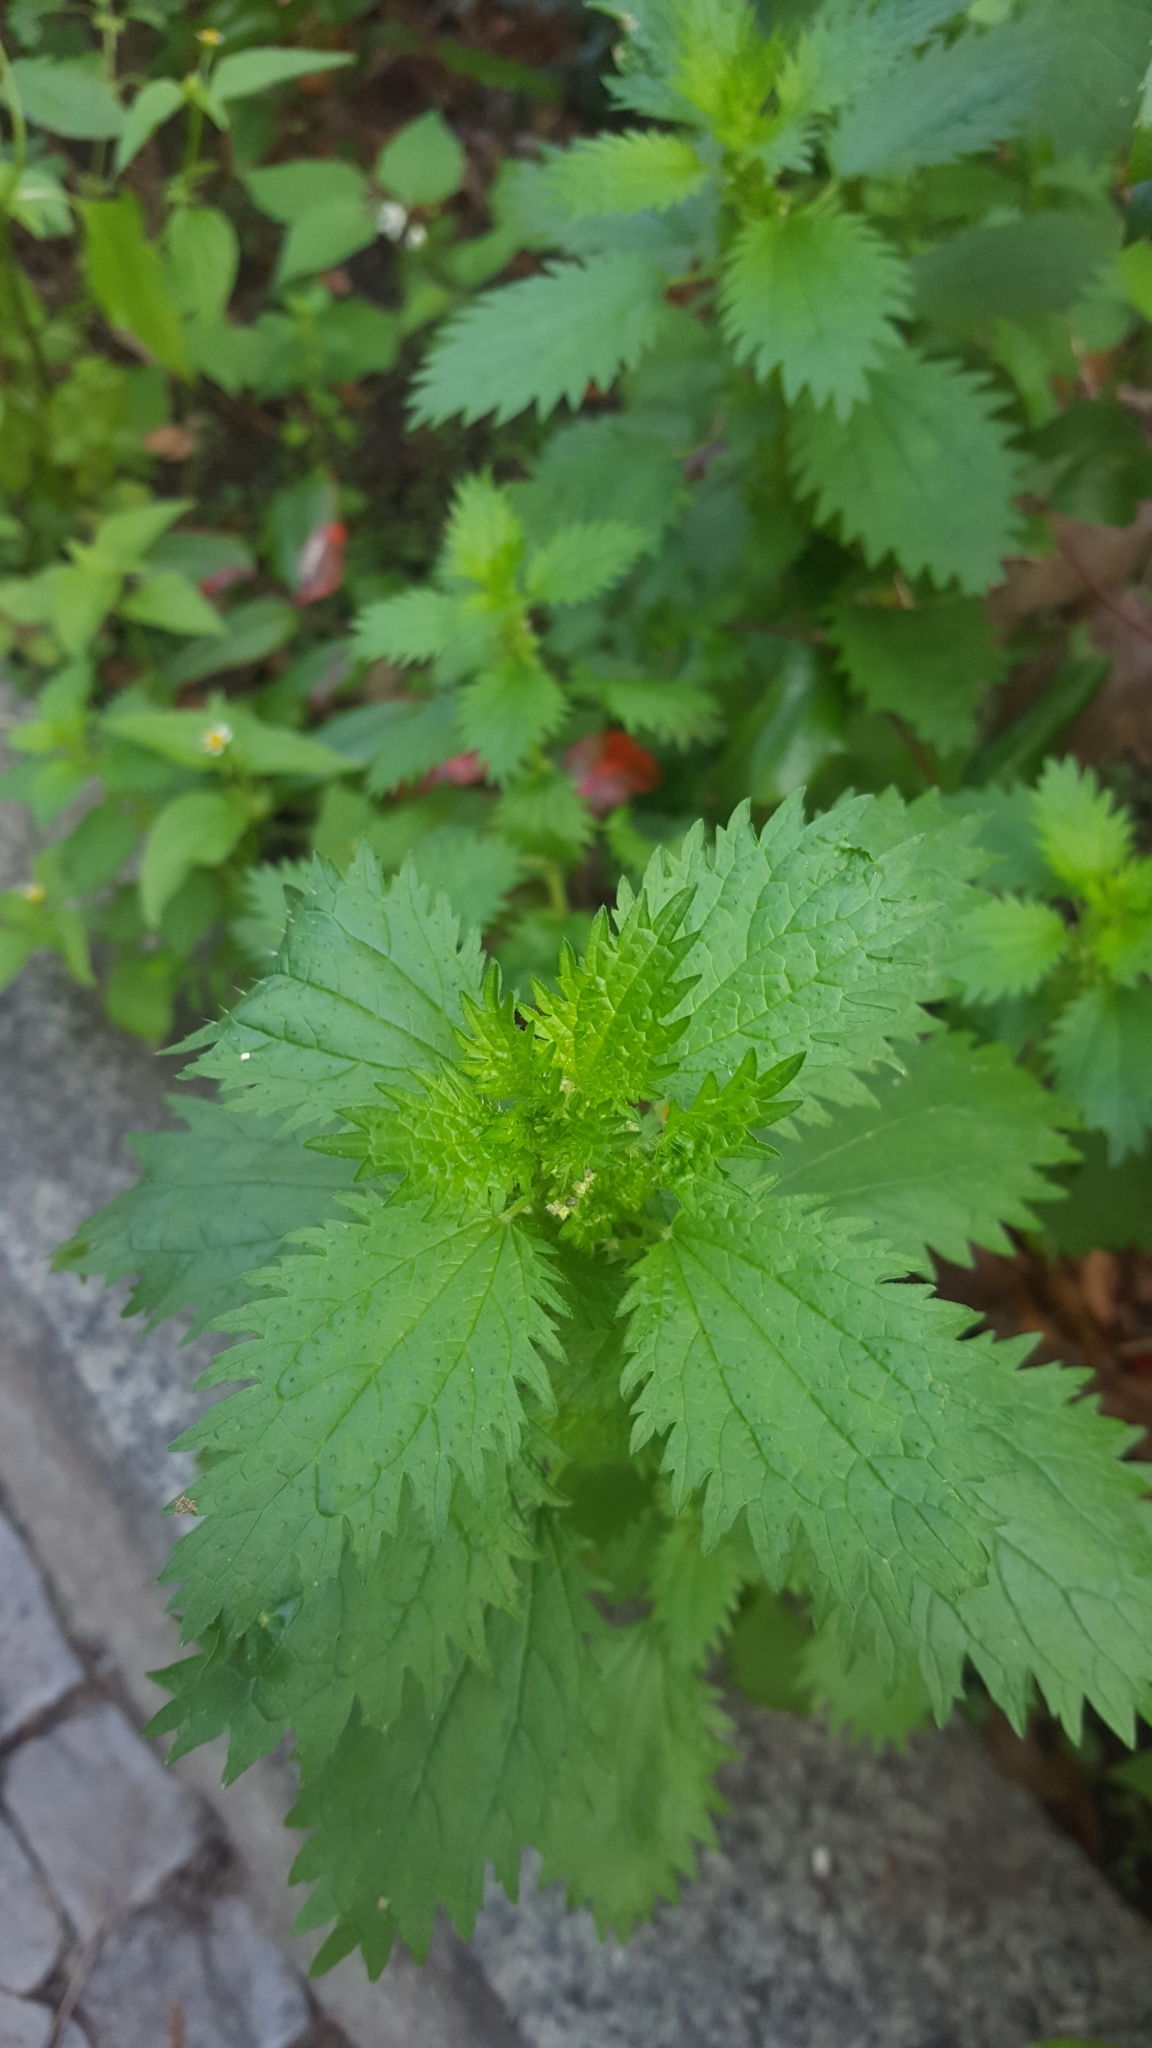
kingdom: Plantae
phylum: Tracheophyta
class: Magnoliopsida
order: Rosales
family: Urticaceae
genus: Urtica
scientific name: Urtica urens
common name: Dwarf nettle
